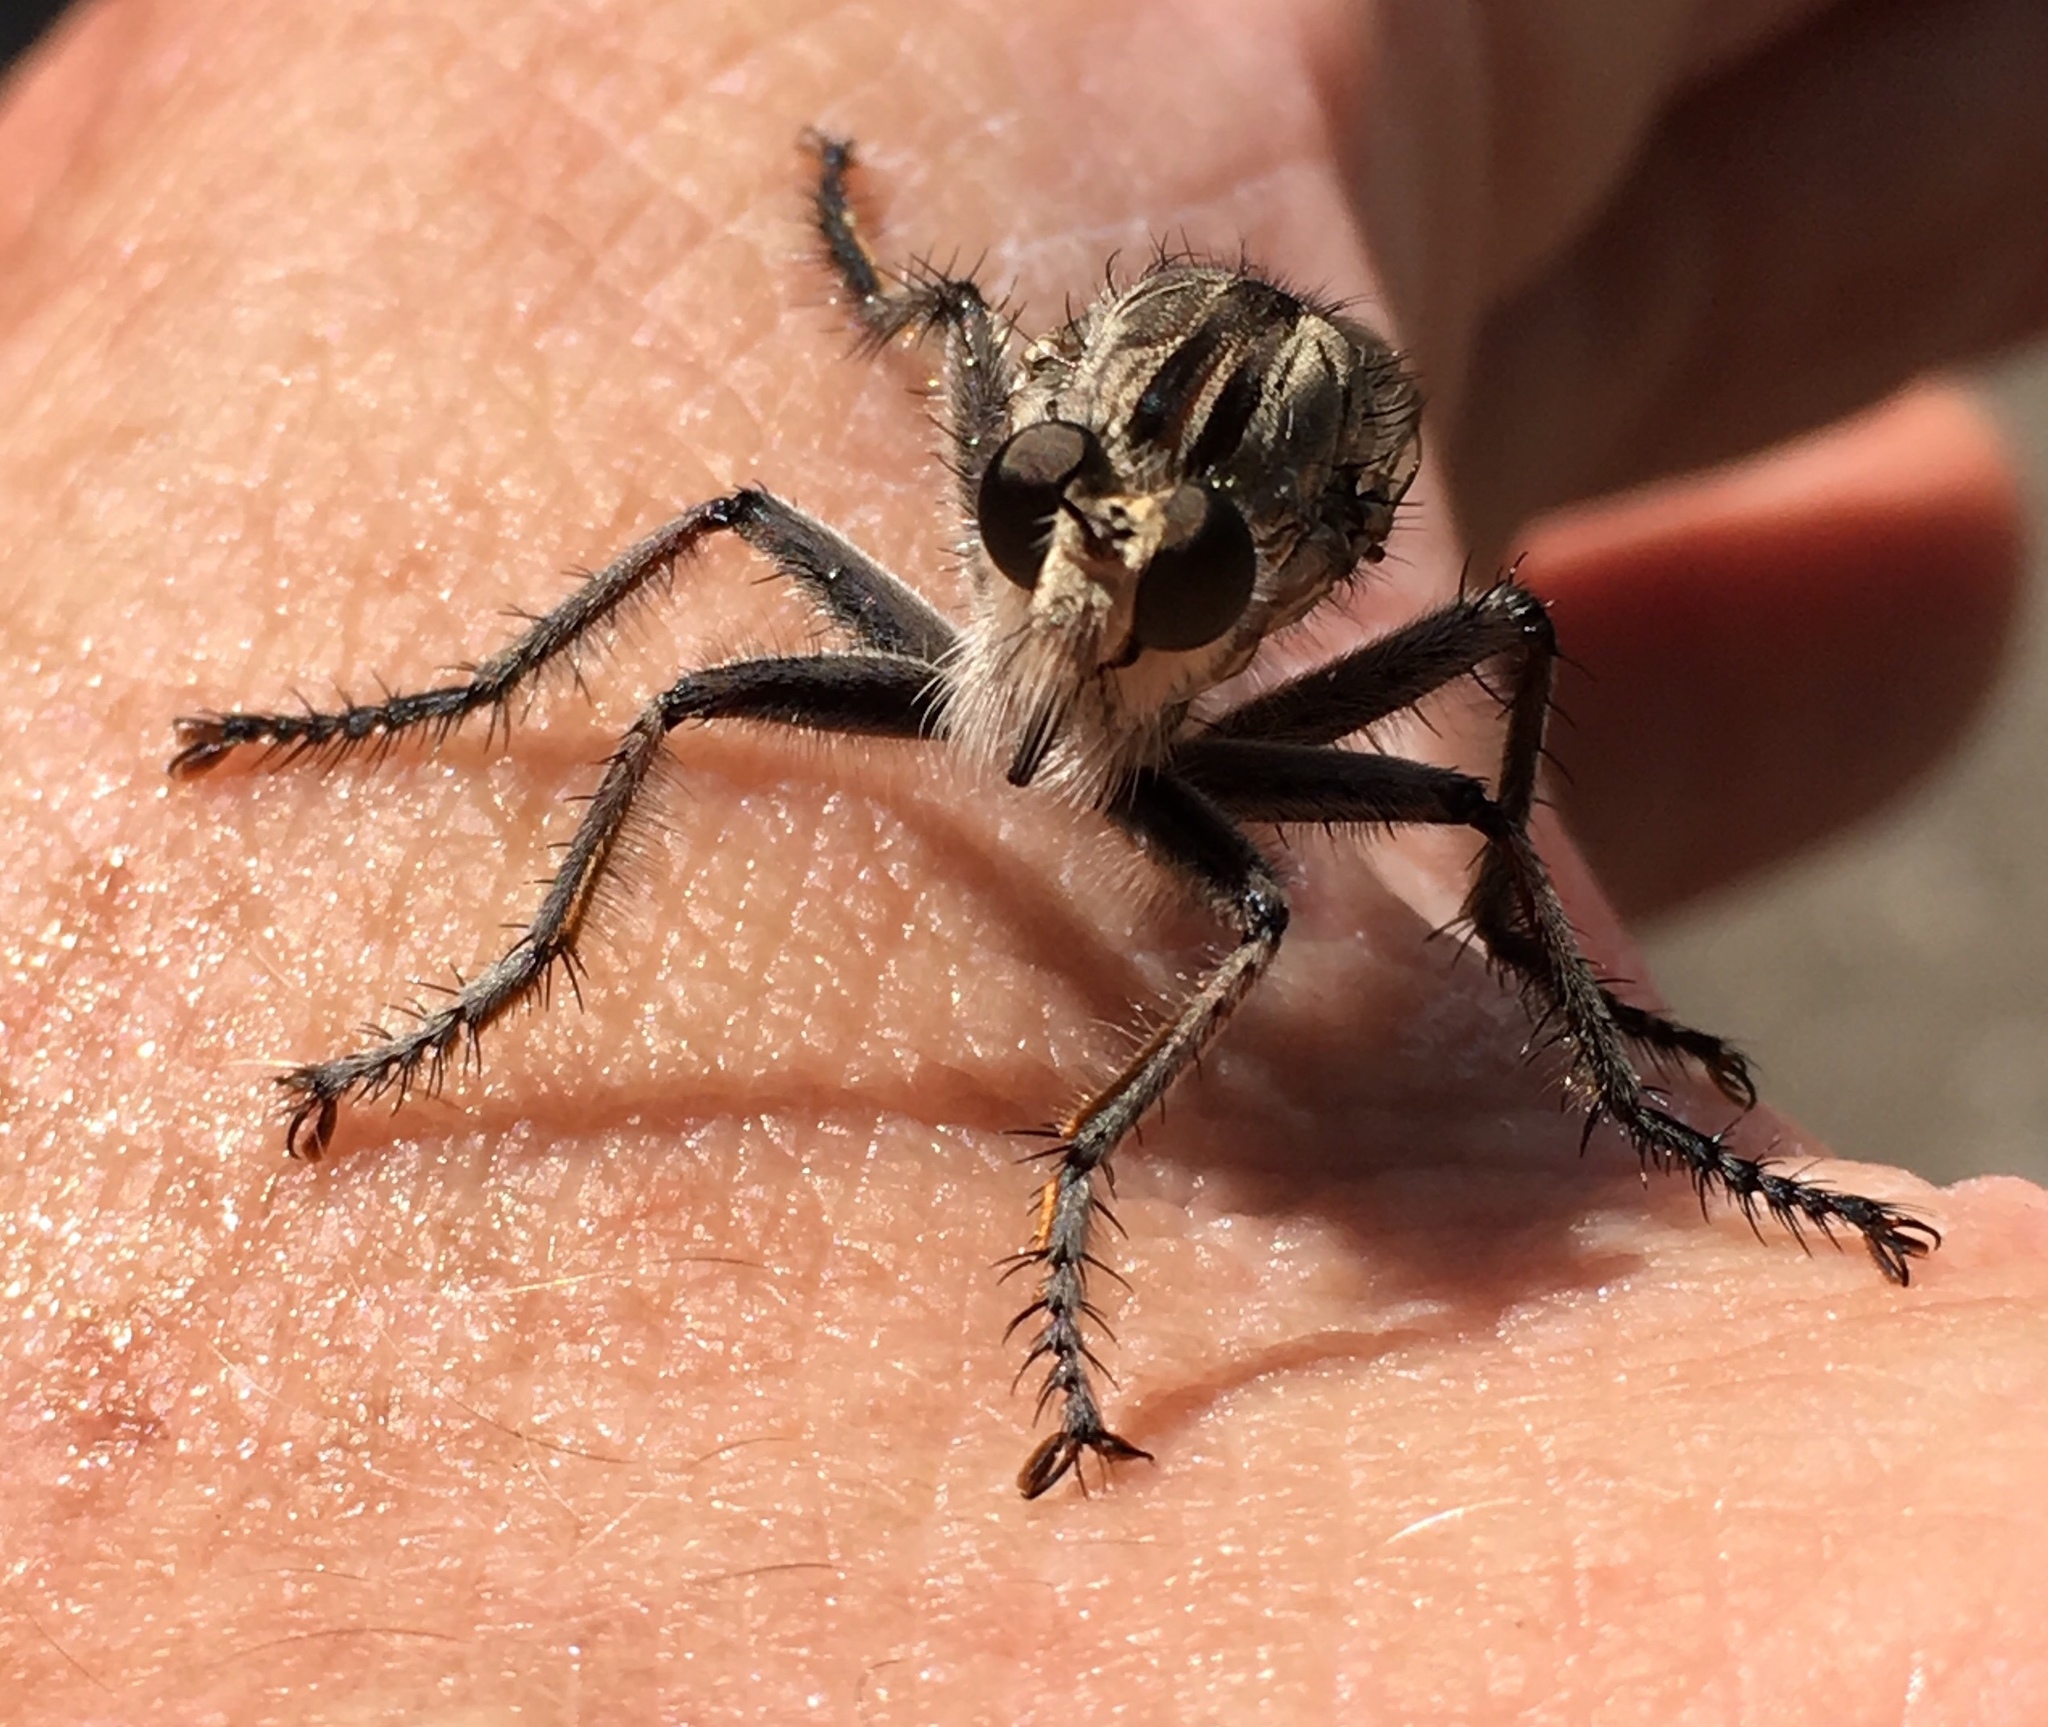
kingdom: Animalia
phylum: Arthropoda
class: Insecta
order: Diptera
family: Asilidae
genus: Triorla
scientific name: Triorla interrupta
